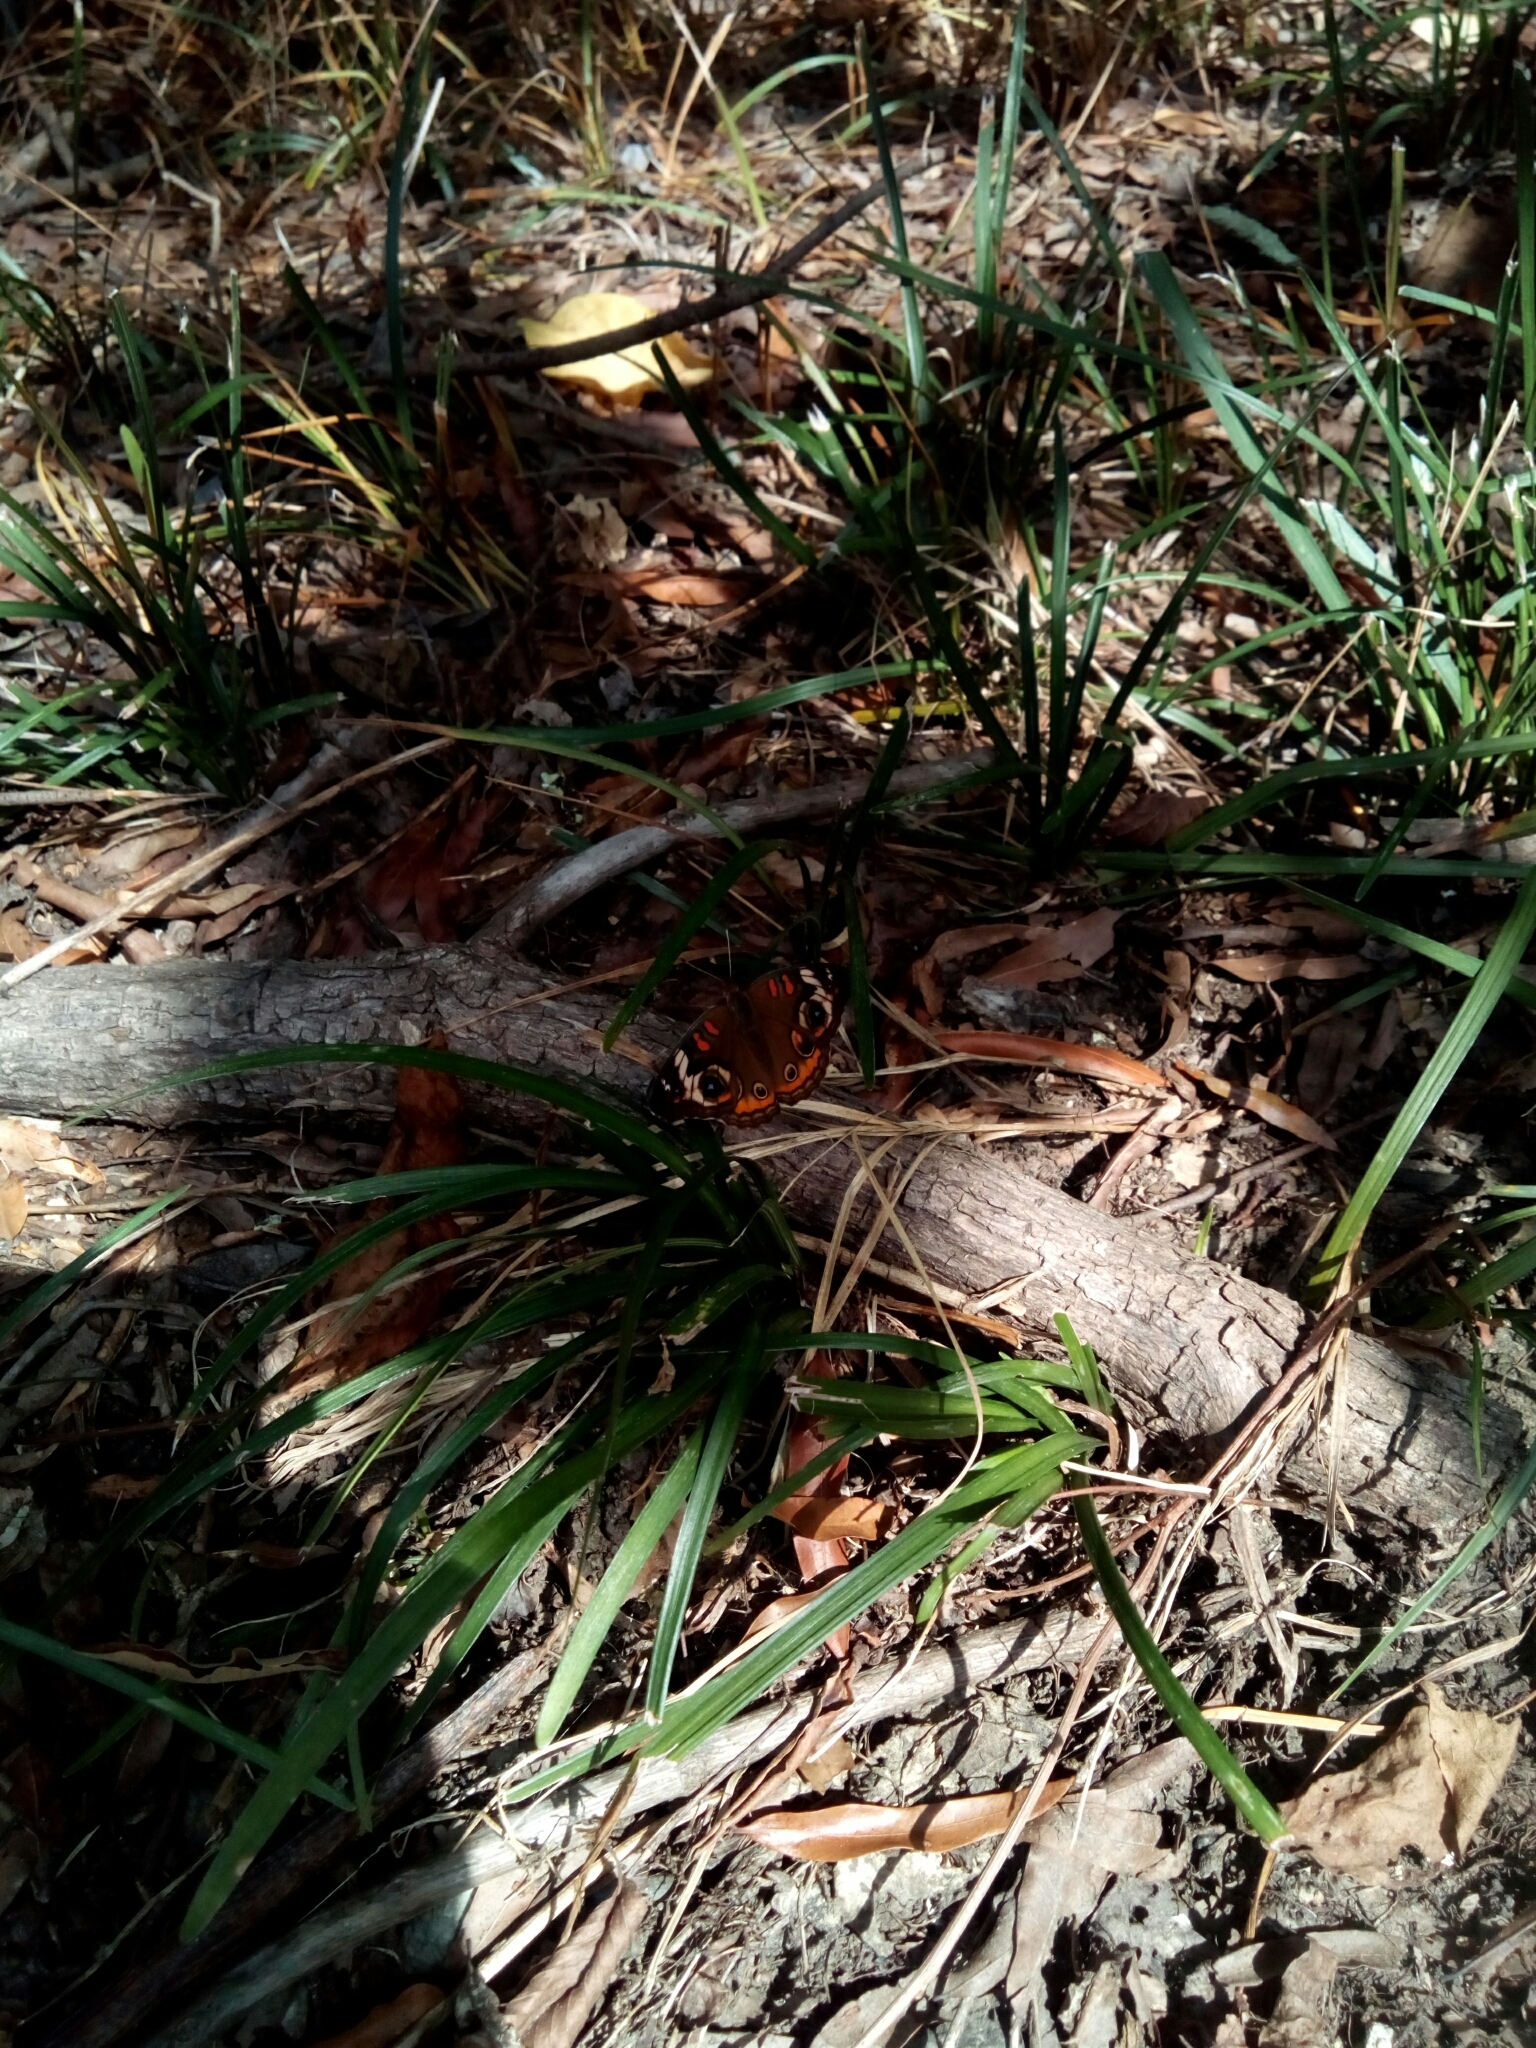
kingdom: Animalia
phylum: Arthropoda
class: Insecta
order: Lepidoptera
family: Nymphalidae
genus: Junonia
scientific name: Junonia coenia
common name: Common buckeye
